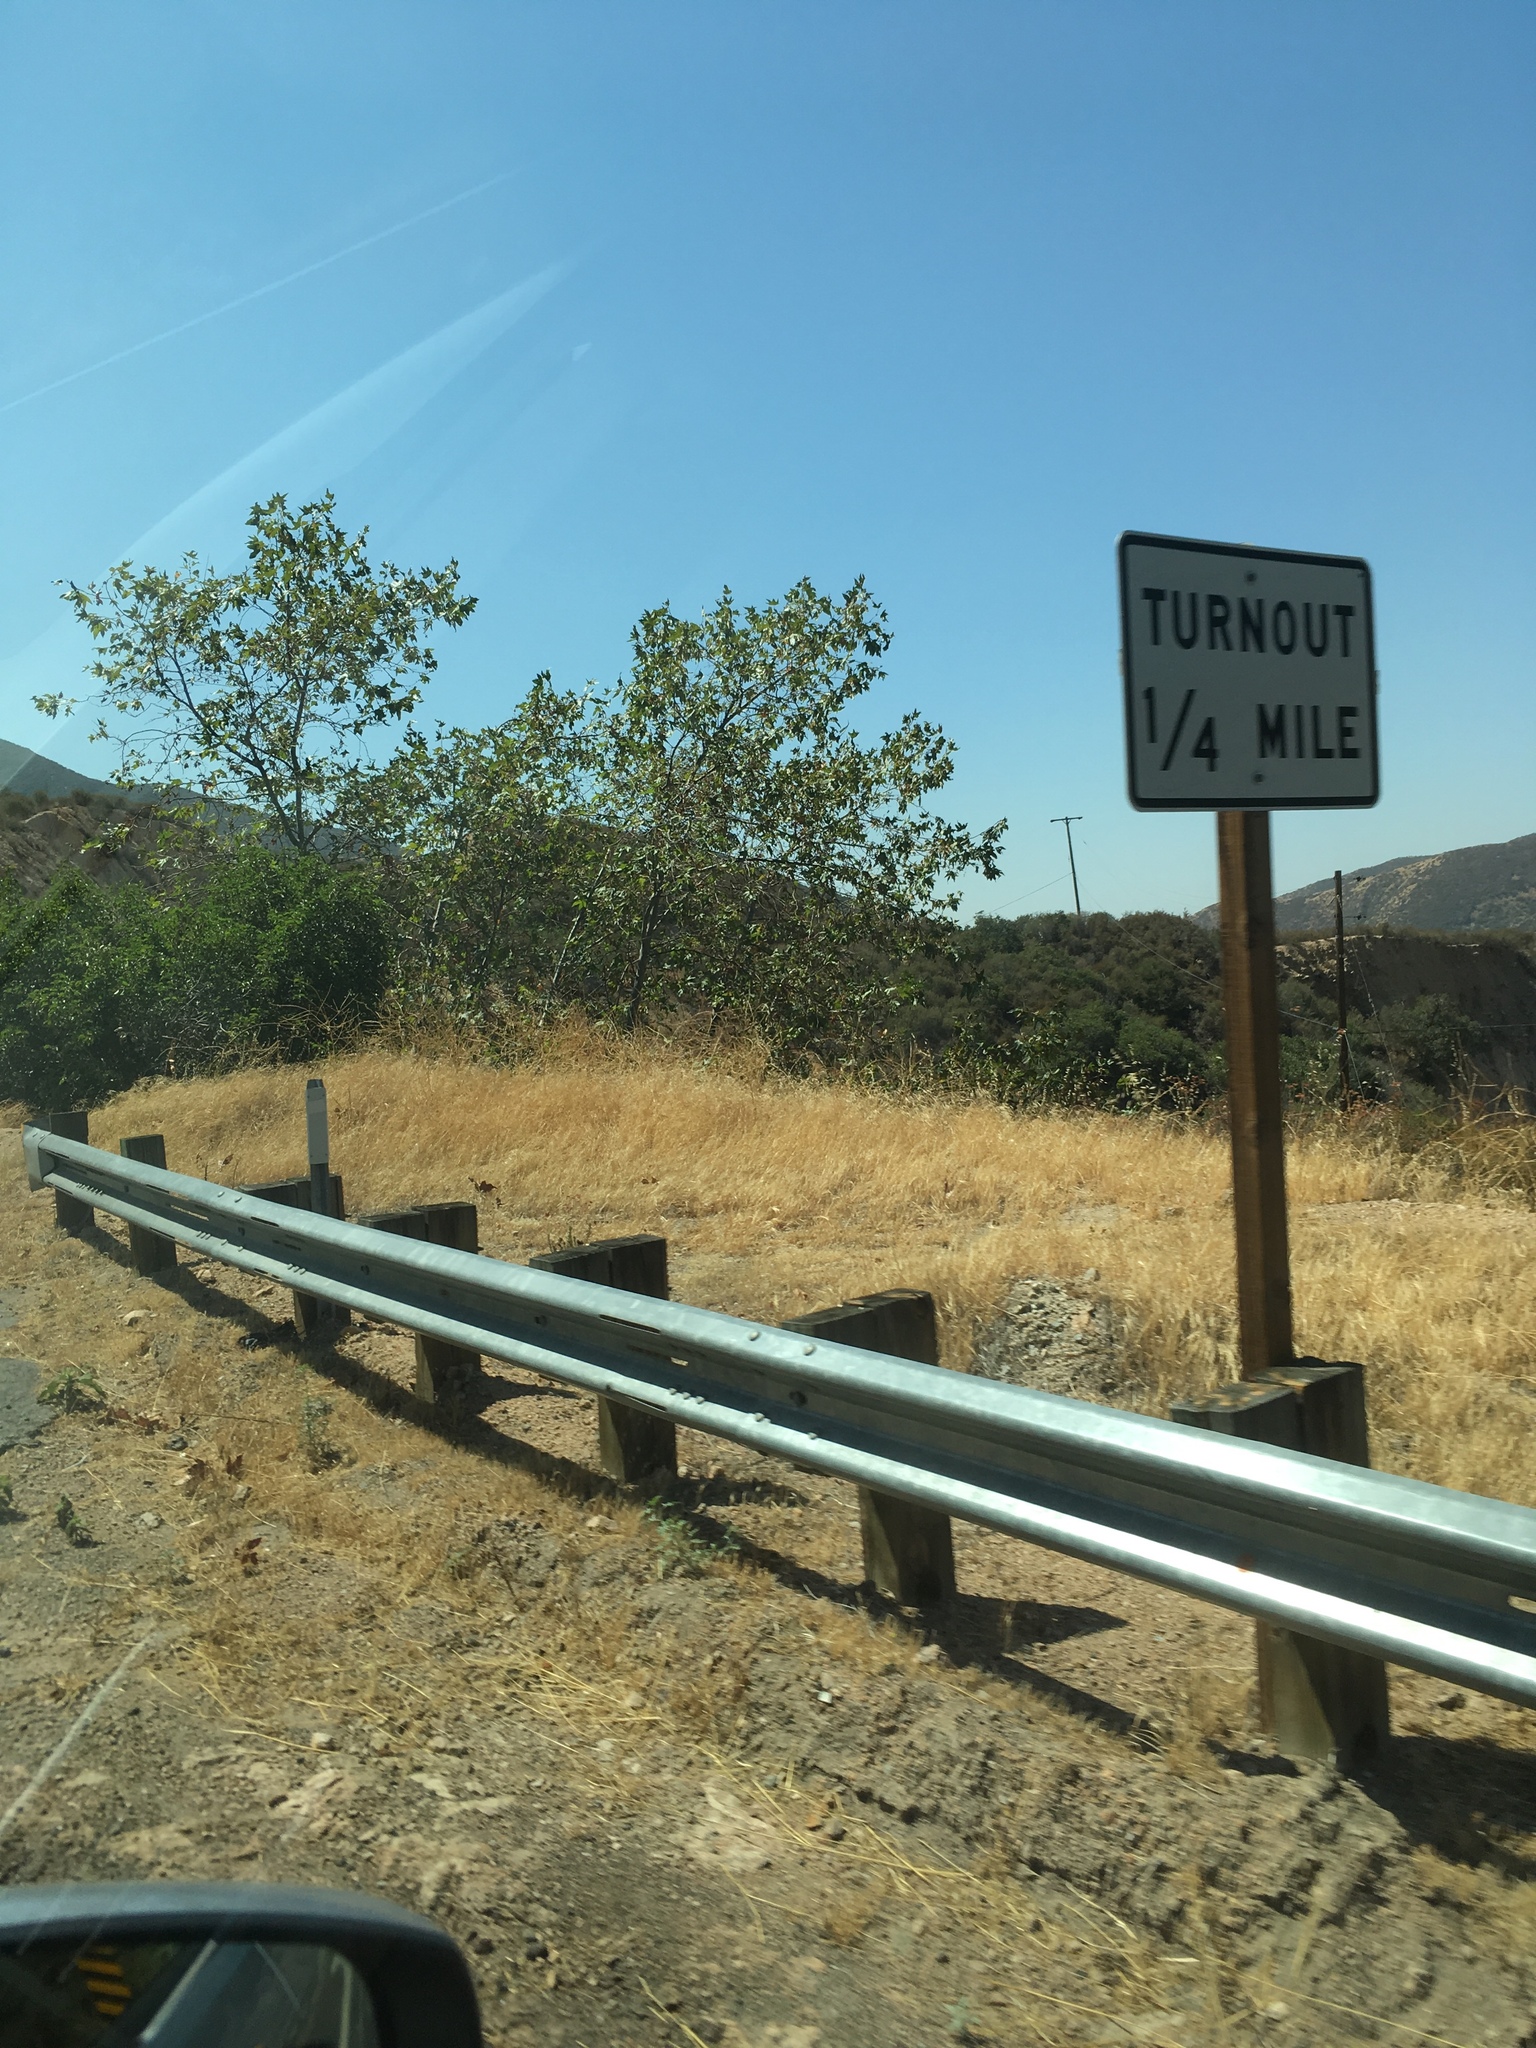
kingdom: Plantae
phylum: Tracheophyta
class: Magnoliopsida
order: Proteales
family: Platanaceae
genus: Platanus
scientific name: Platanus racemosa
